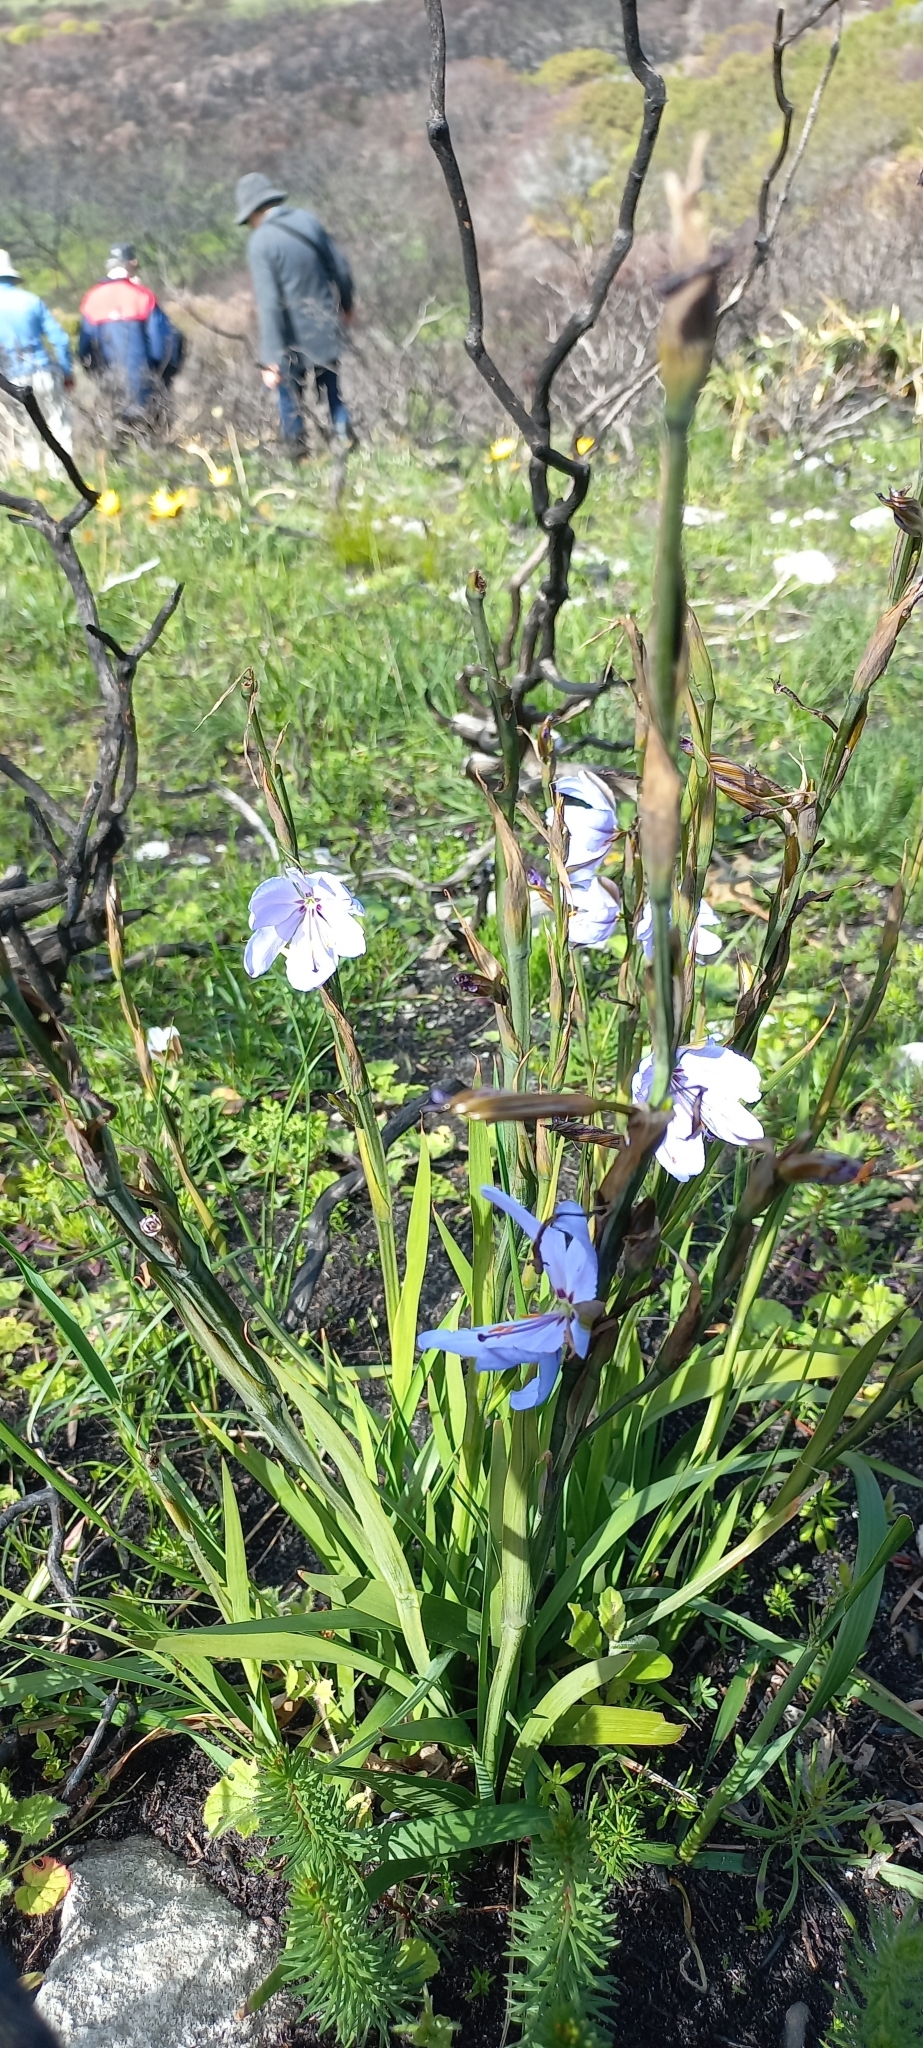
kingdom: Plantae
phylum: Tracheophyta
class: Liliopsida
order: Asparagales
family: Iridaceae
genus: Aristea
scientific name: Aristea spiralis
